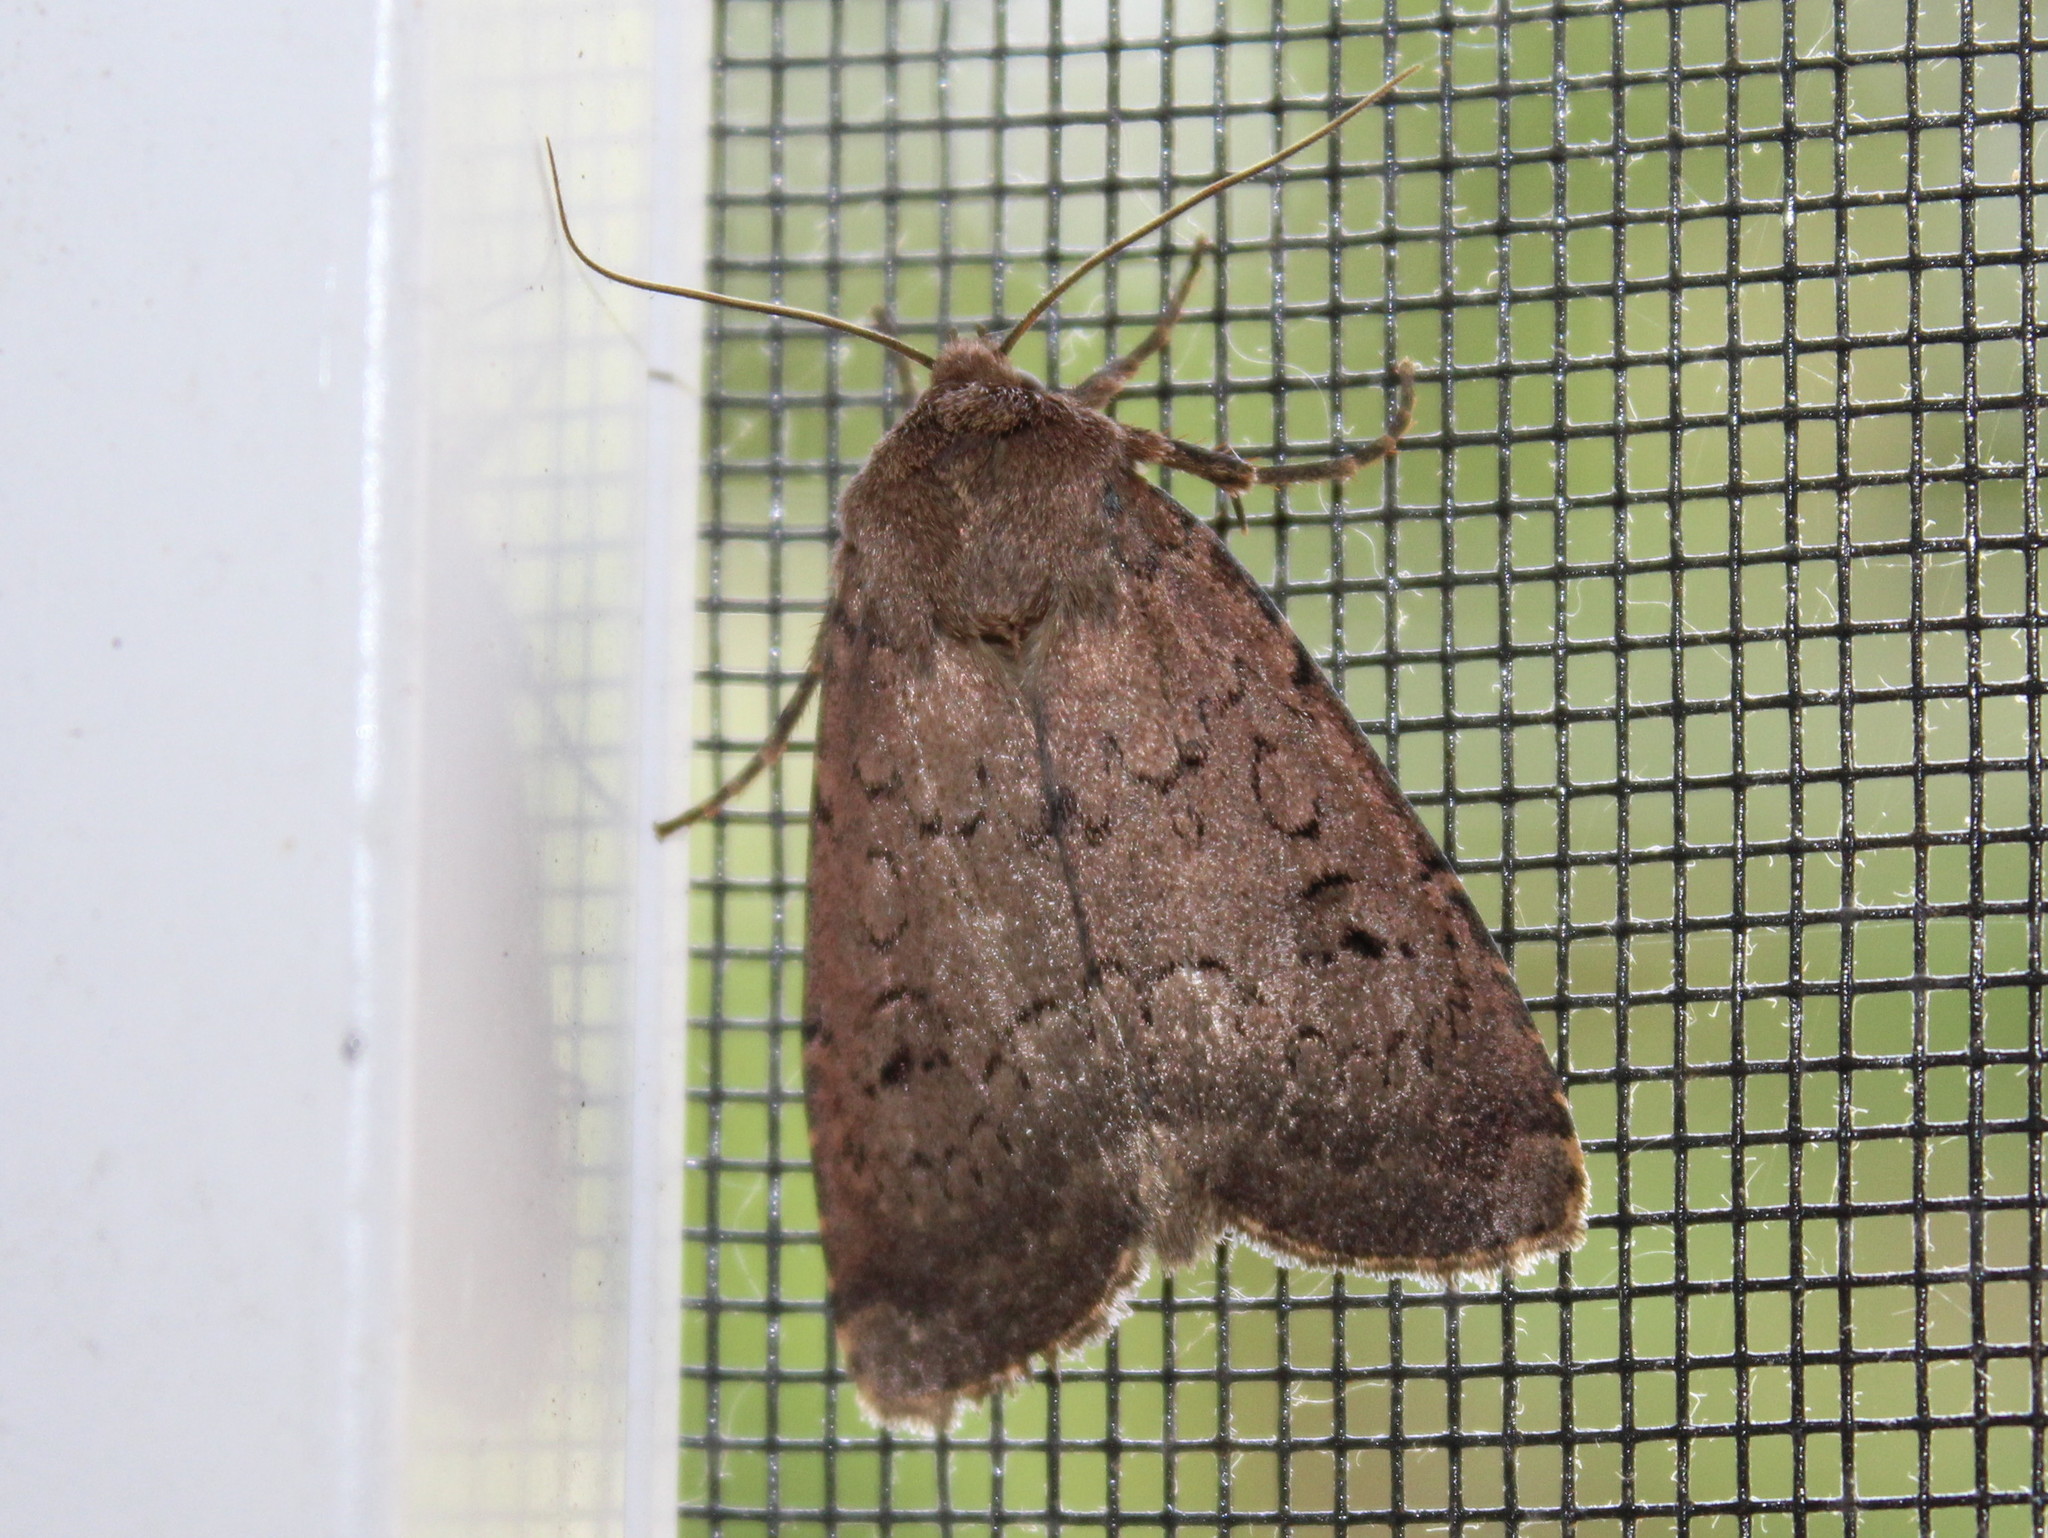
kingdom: Animalia
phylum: Arthropoda
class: Insecta
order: Lepidoptera
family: Noctuidae
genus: Graphiphora
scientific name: Graphiphora augur
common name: Double dart
